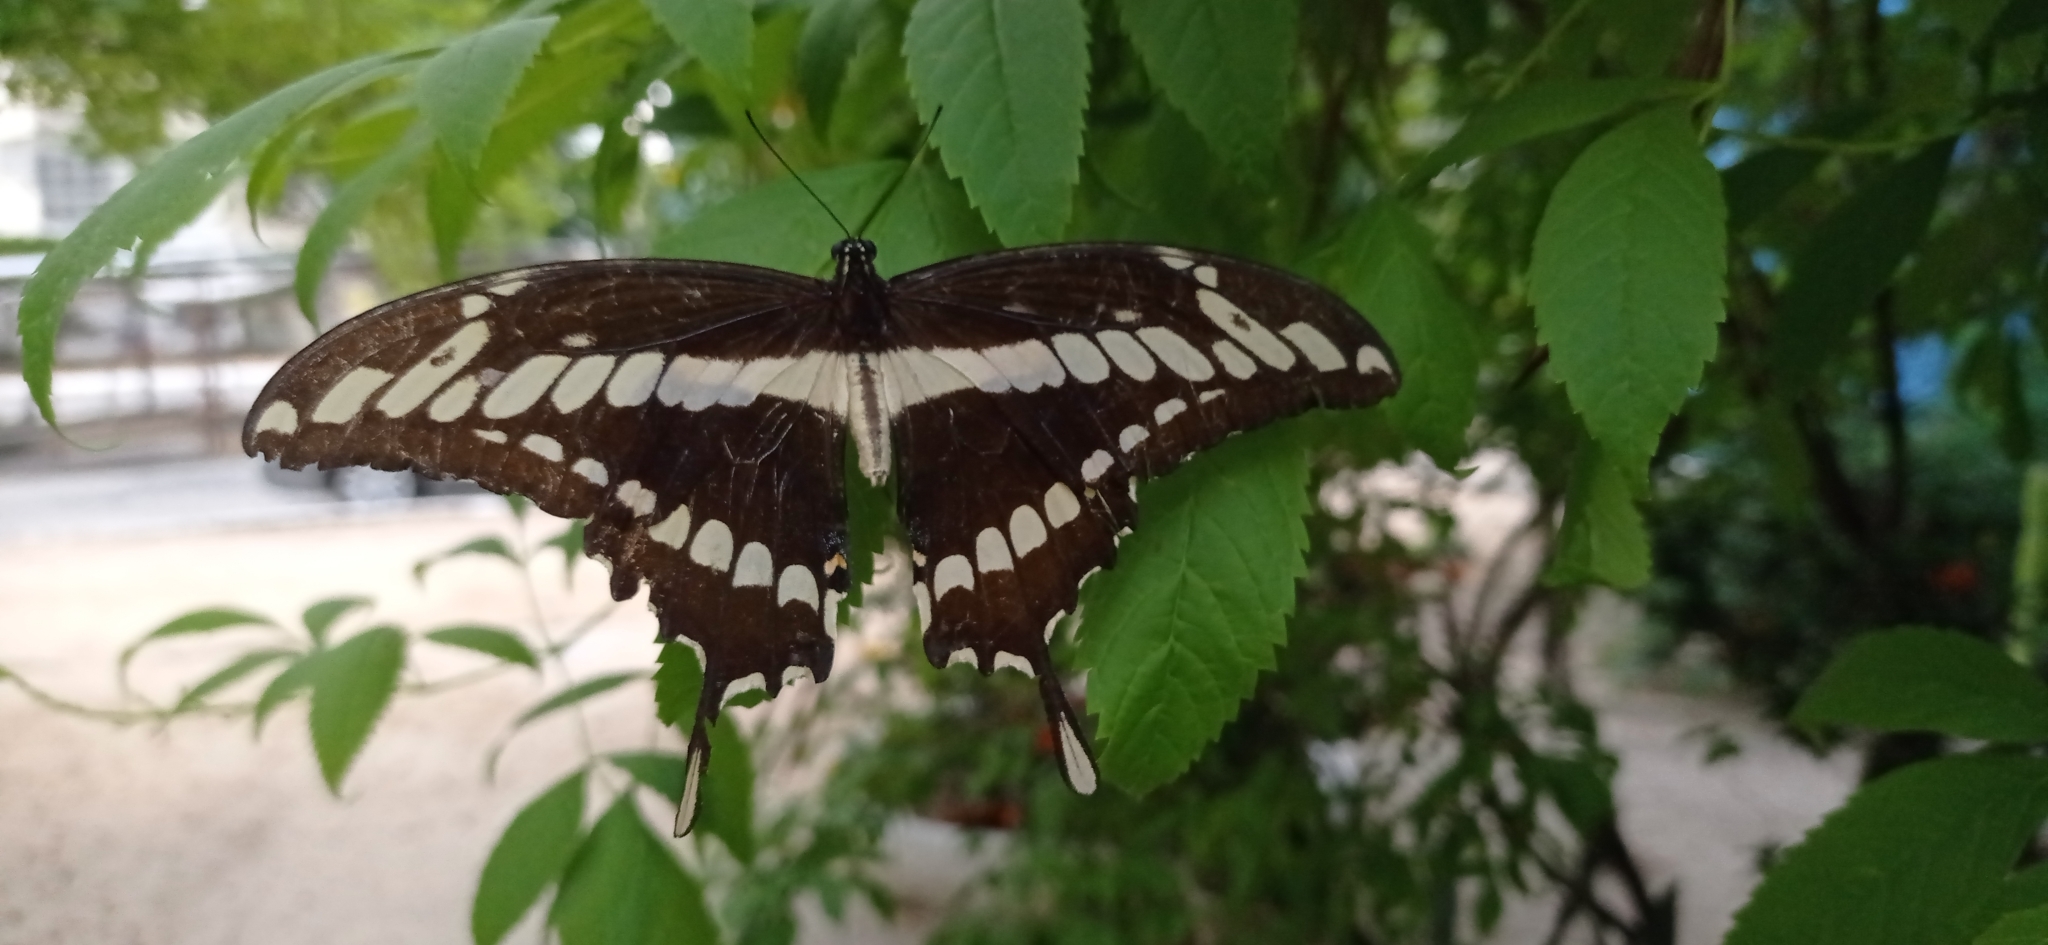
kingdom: Animalia
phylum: Arthropoda
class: Insecta
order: Lepidoptera
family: Papilionidae
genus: Papilio
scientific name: Papilio thoas
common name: King swallowtail
